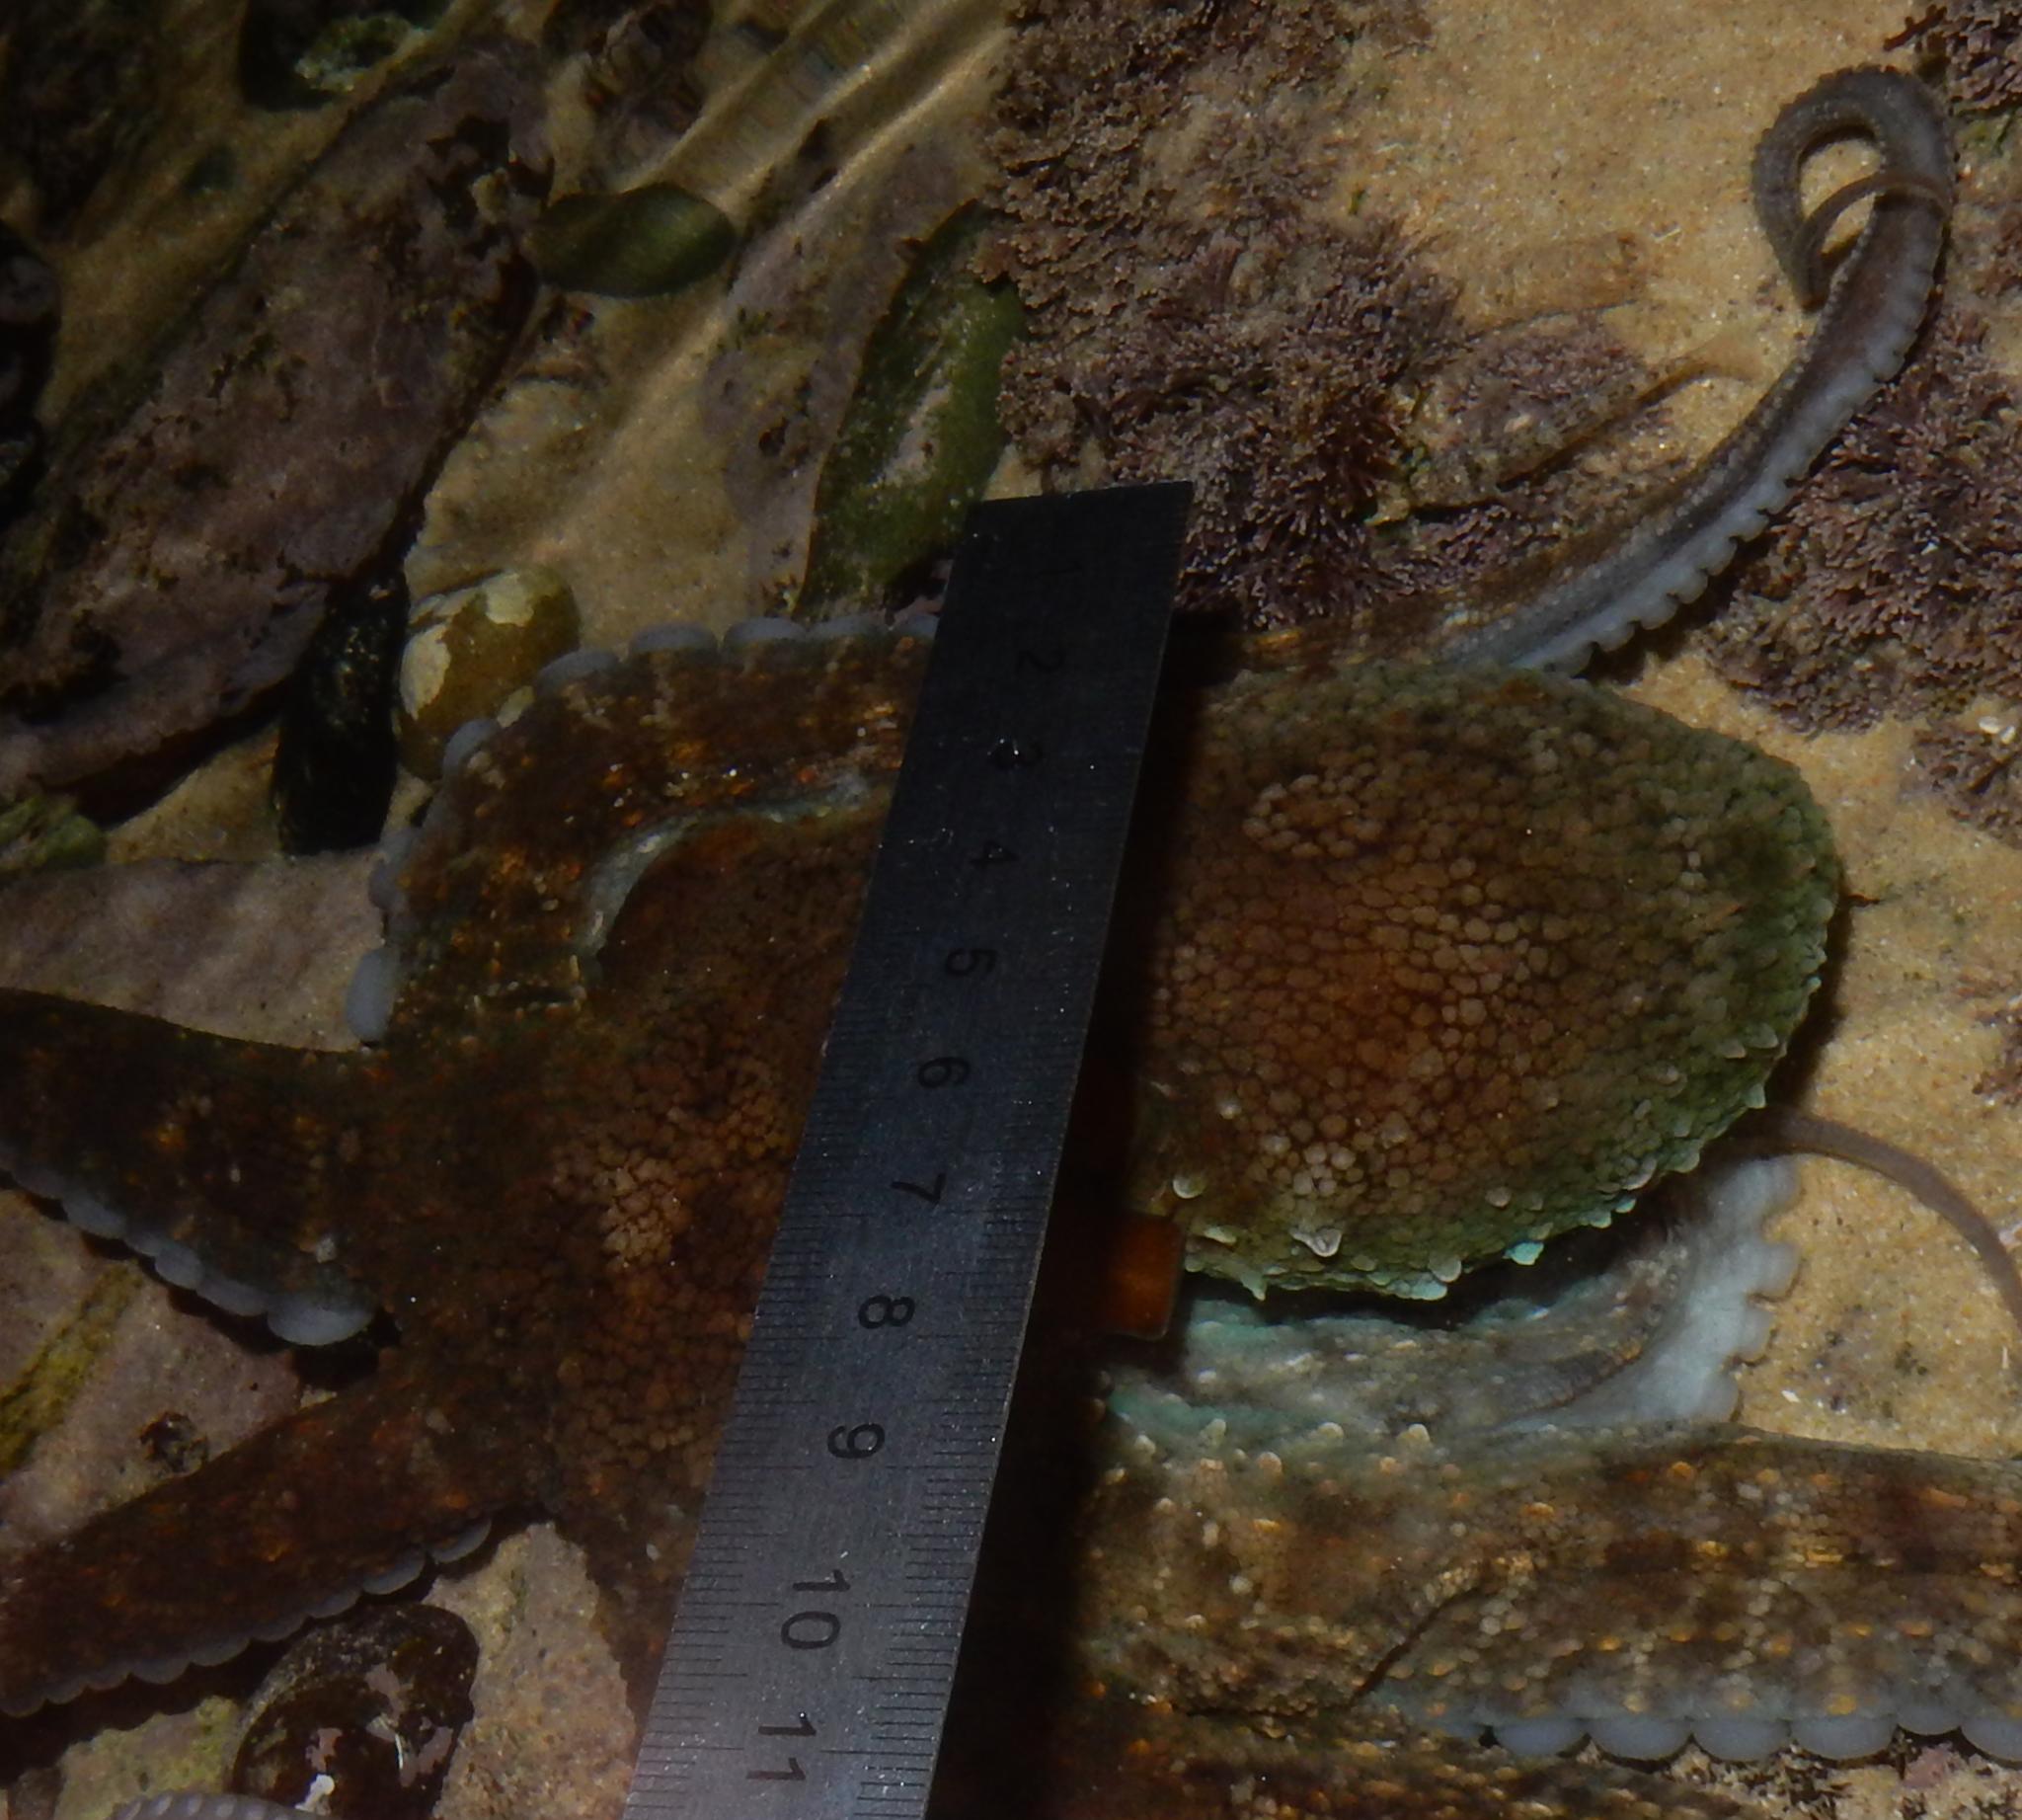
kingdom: Animalia
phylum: Mollusca
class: Cephalopoda
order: Octopoda
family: Octopodidae
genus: Octopus
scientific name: Octopus vulgaris
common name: Common octopus
